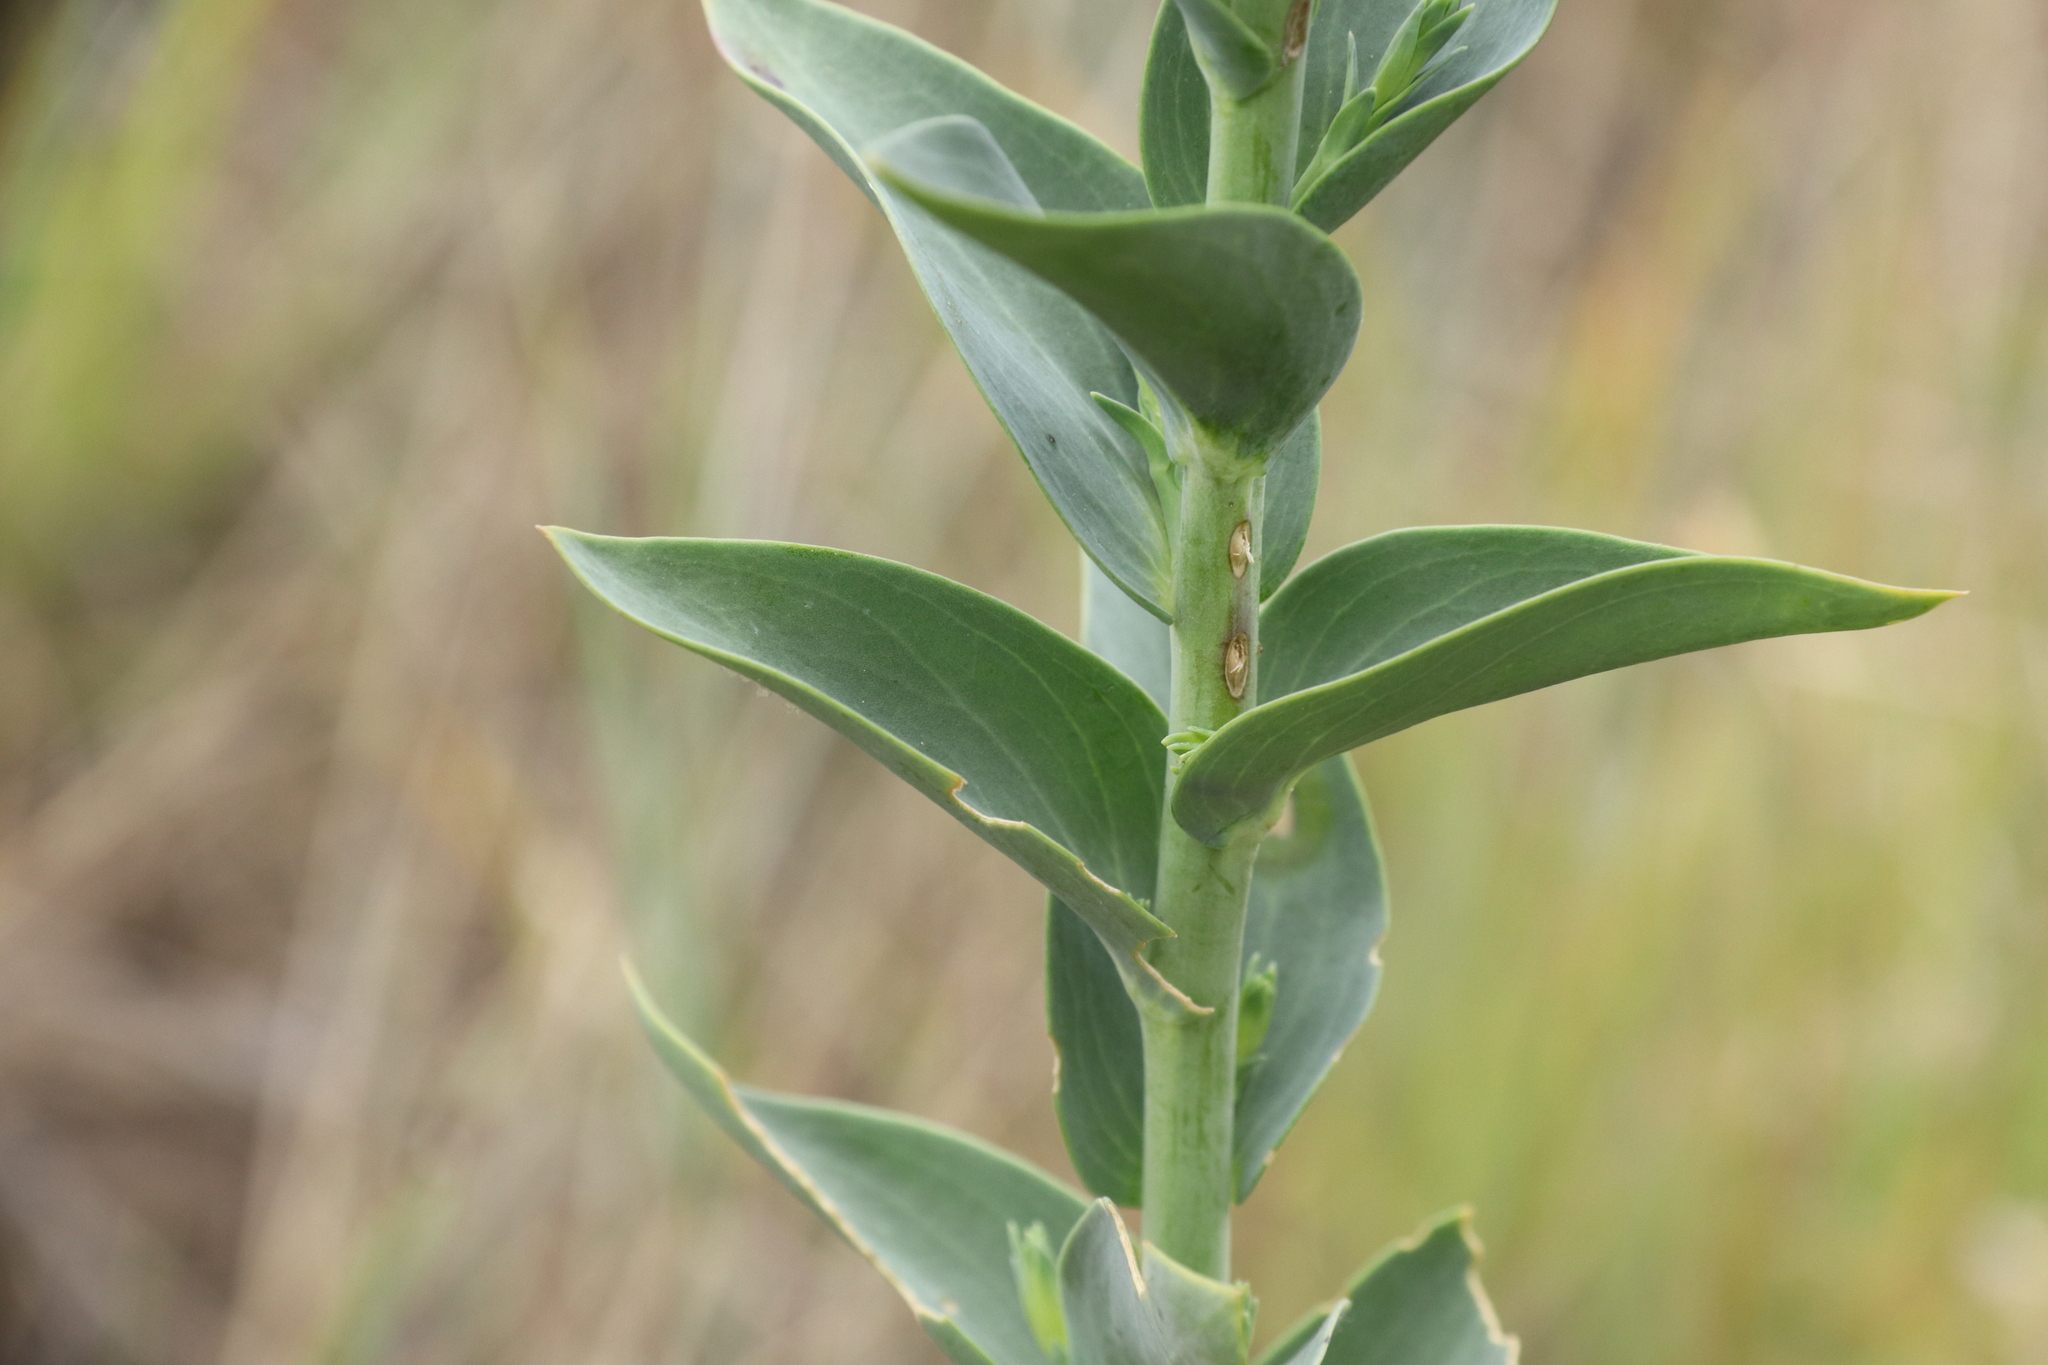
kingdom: Plantae
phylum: Tracheophyta
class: Magnoliopsida
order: Lamiales
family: Plantaginaceae
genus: Linaria
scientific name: Linaria genistifolia
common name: Broomleaf toadflax
